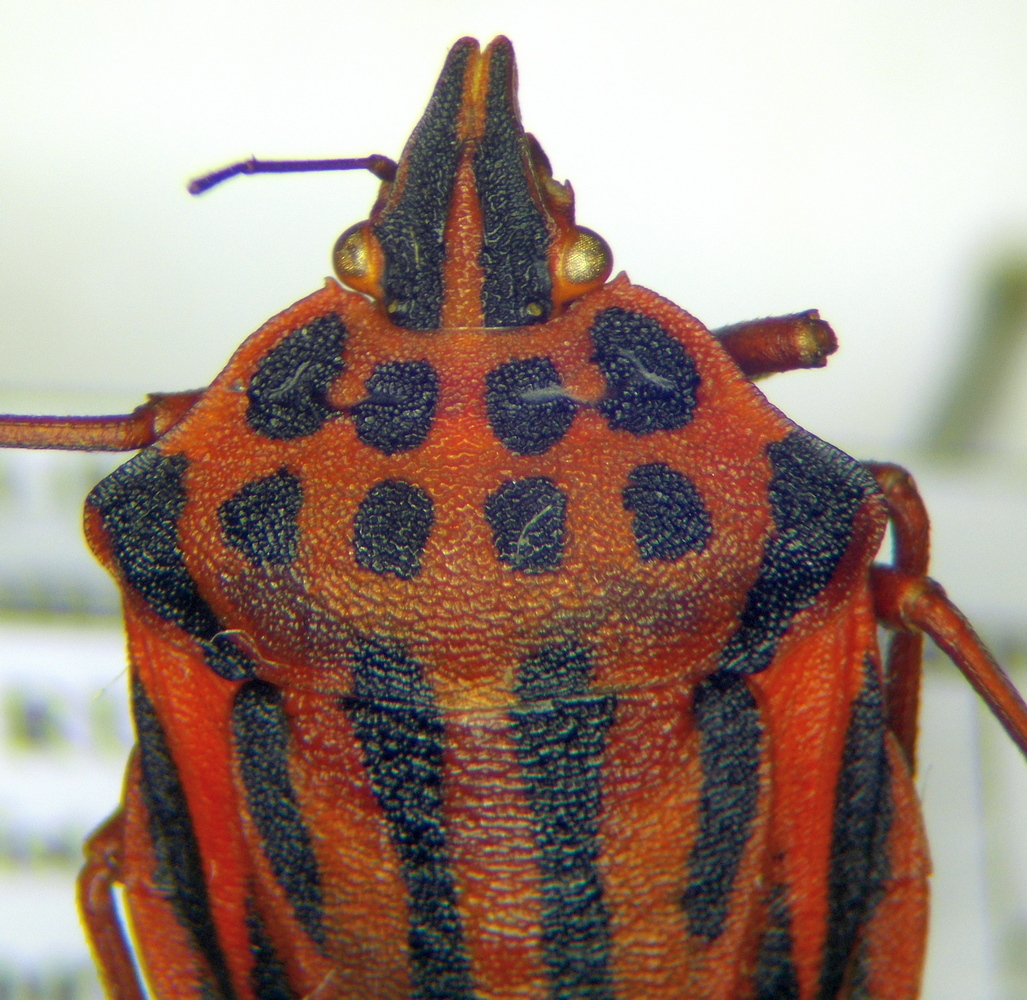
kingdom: Animalia
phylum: Arthropoda
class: Insecta
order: Hemiptera
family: Pentatomidae
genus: Graphosoma
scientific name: Graphosoma semipunctatum
